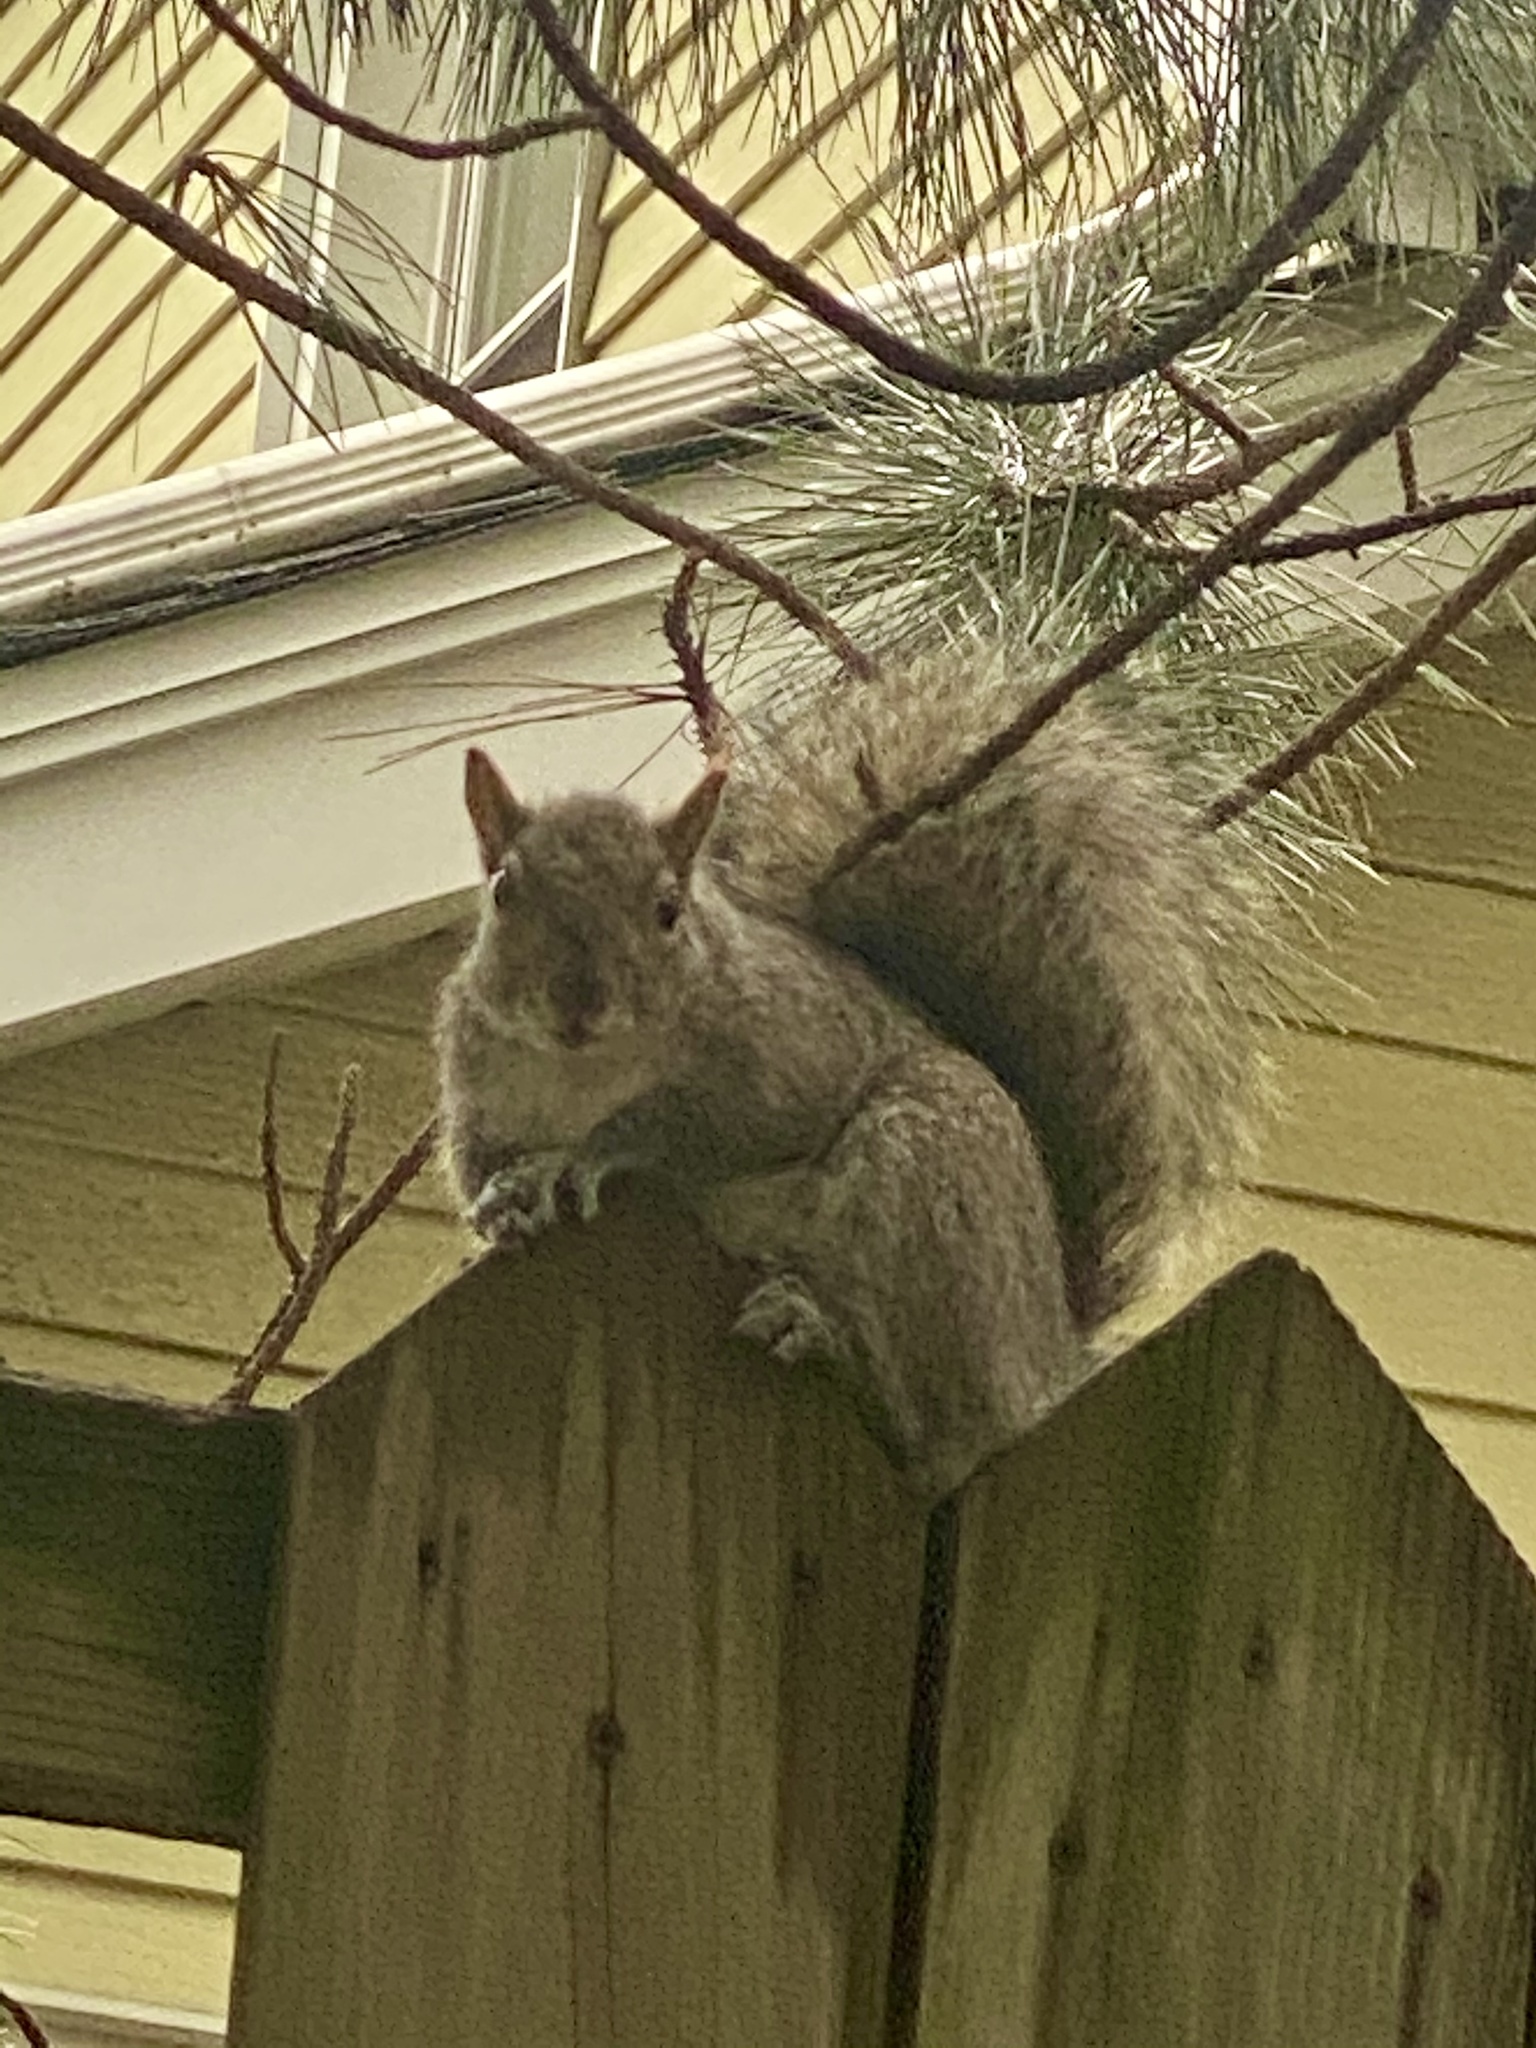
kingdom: Animalia
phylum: Chordata
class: Mammalia
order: Rodentia
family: Sciuridae
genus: Sciurus
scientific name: Sciurus carolinensis
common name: Eastern gray squirrel
